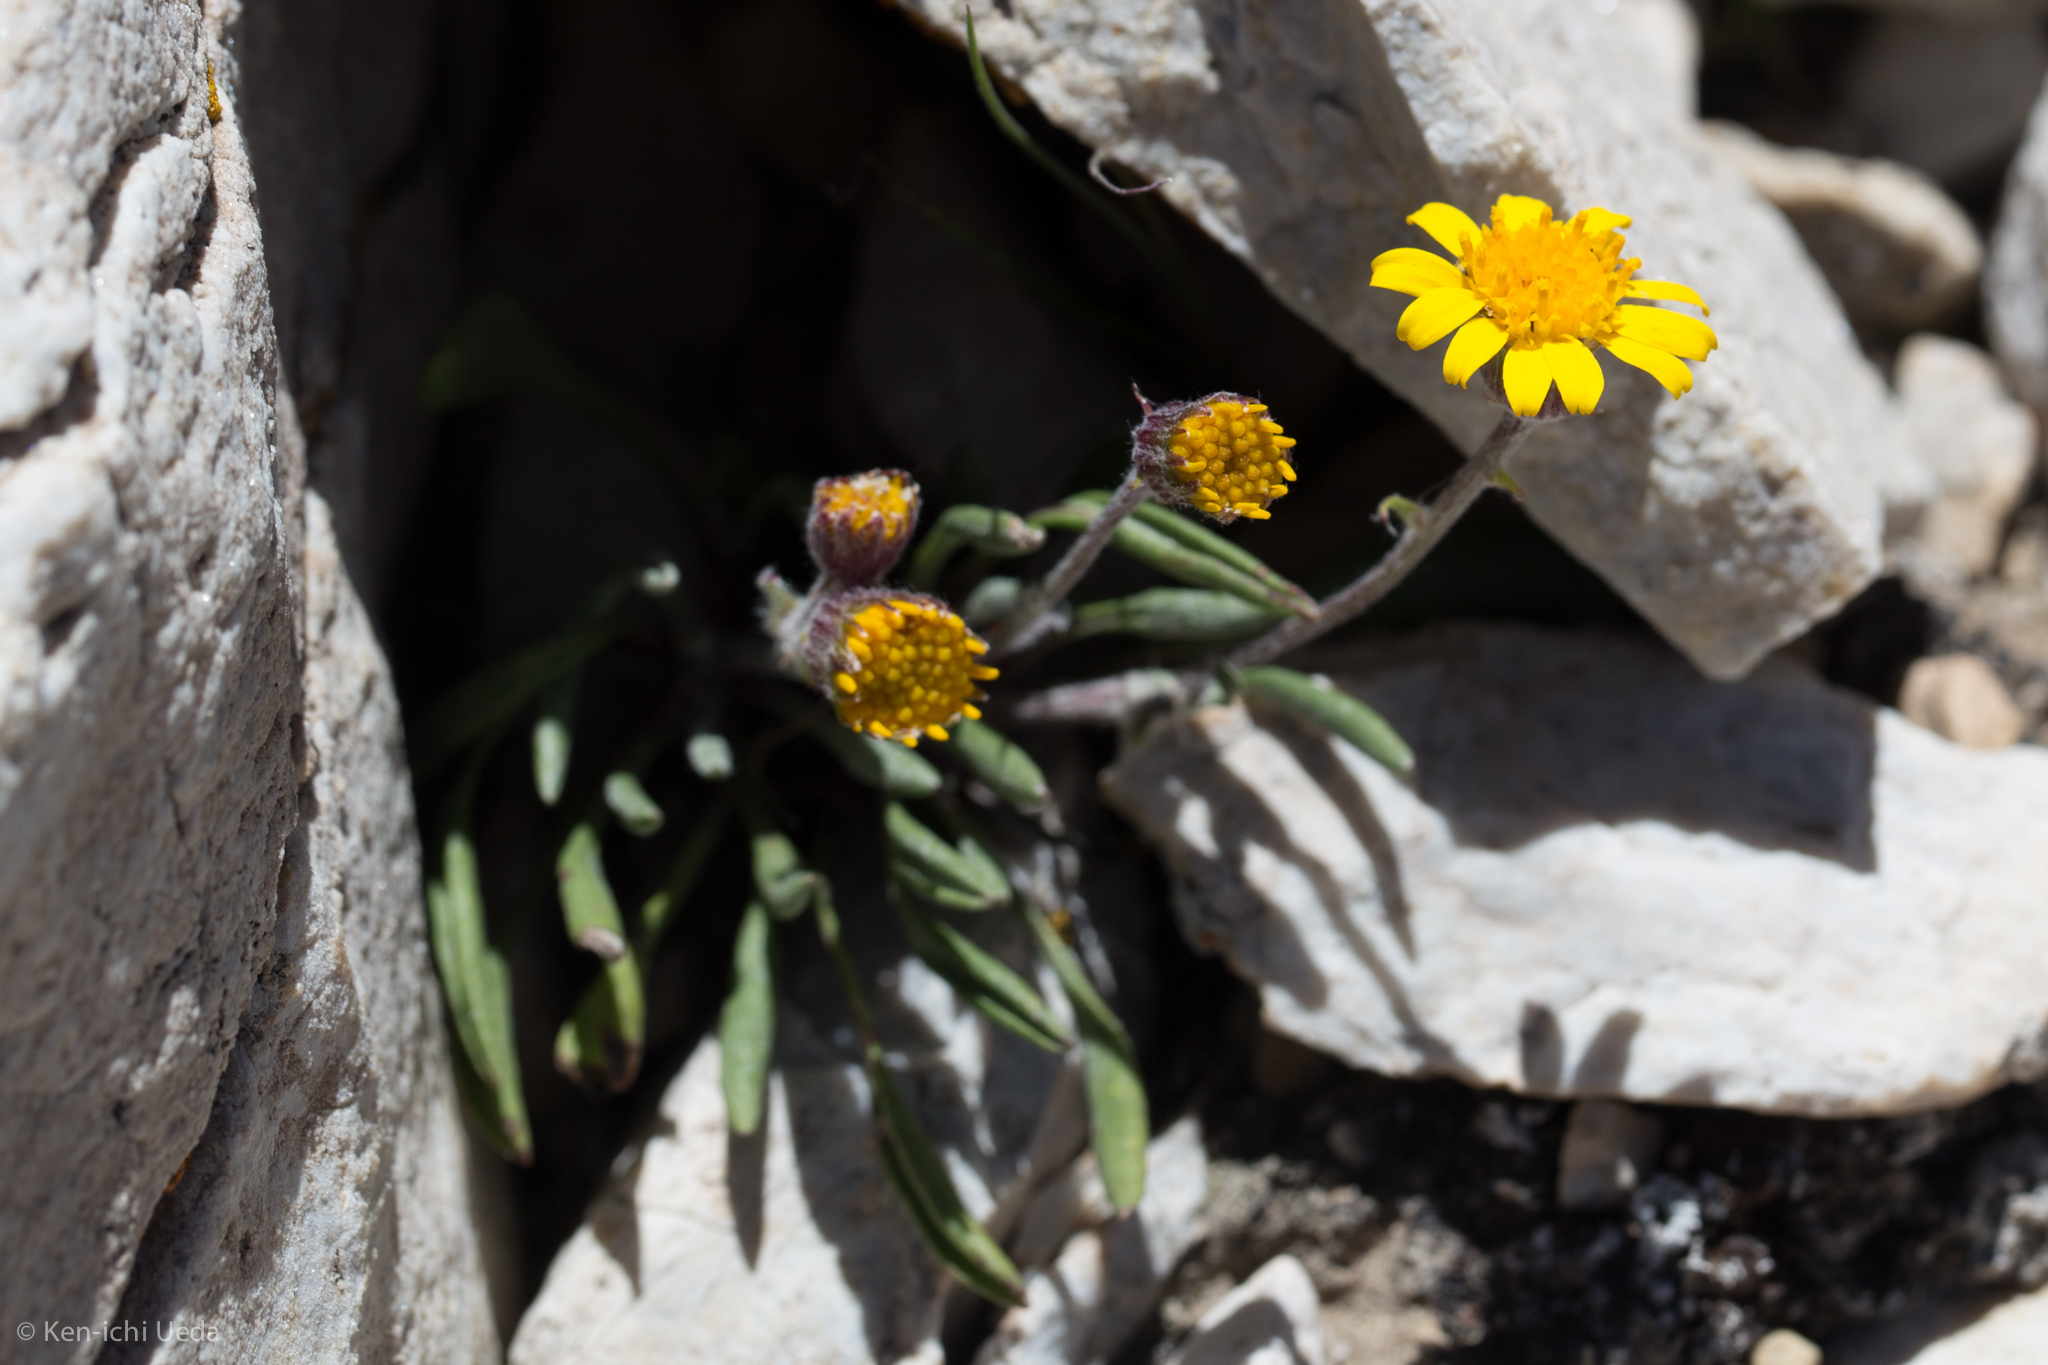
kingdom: Plantae
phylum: Tracheophyta
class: Magnoliopsida
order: Asterales
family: Asteraceae
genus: Packera
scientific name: Packera werneriifolia
